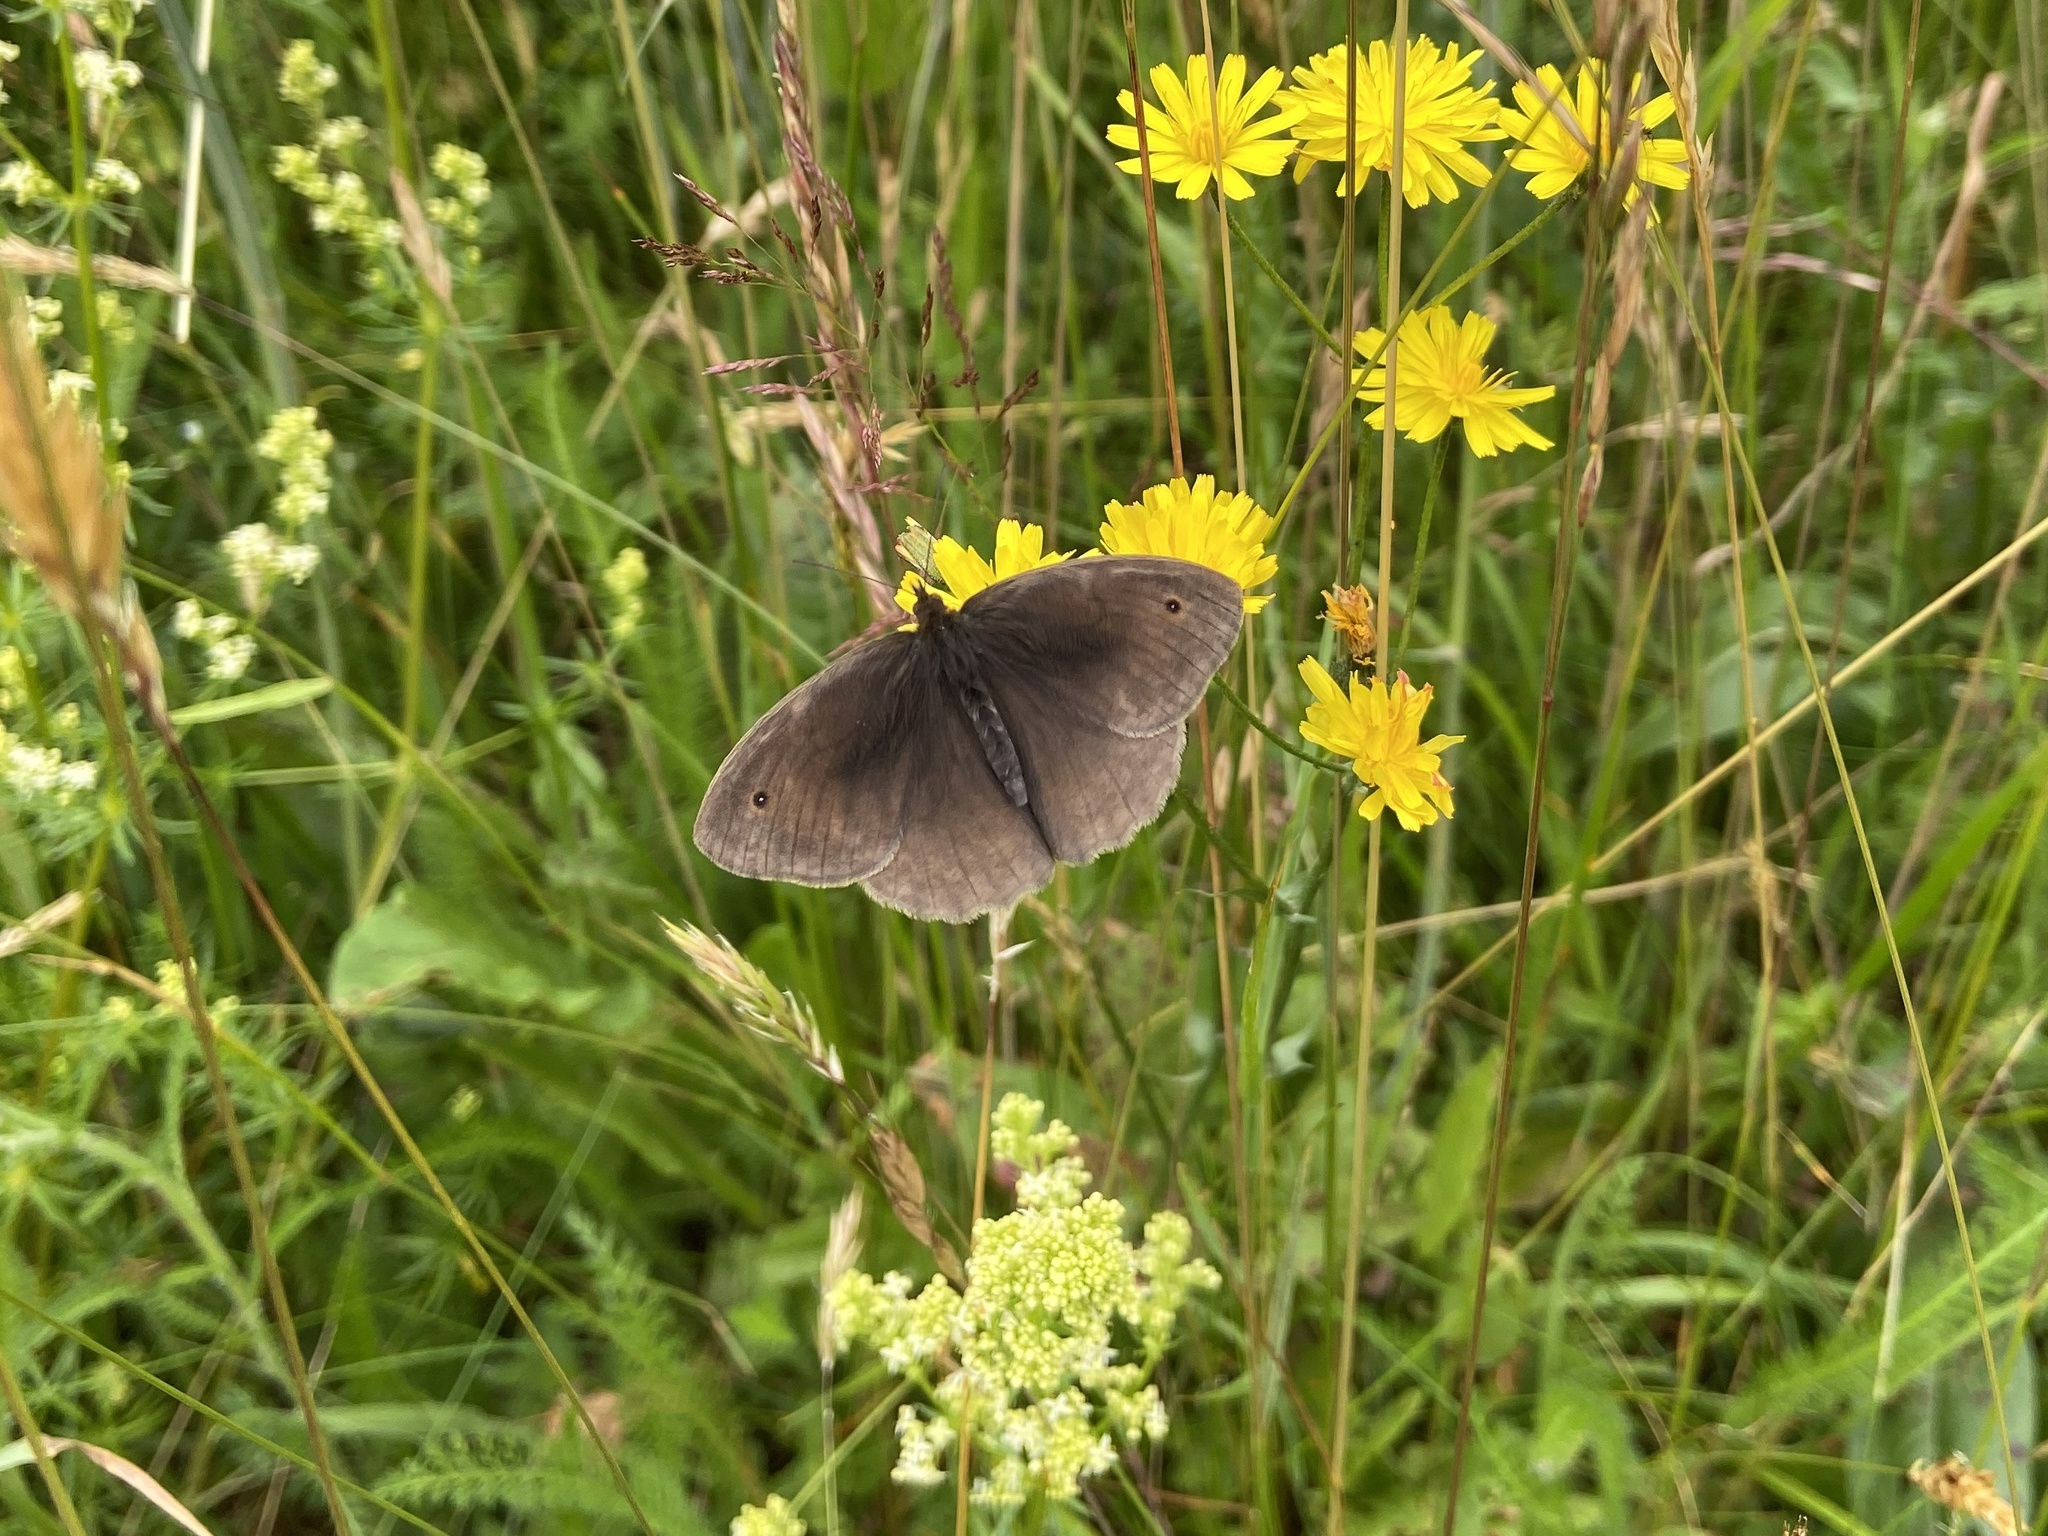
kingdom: Animalia
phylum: Arthropoda
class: Insecta
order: Lepidoptera
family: Nymphalidae
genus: Maniola
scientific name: Maniola jurtina
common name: Meadow brown
